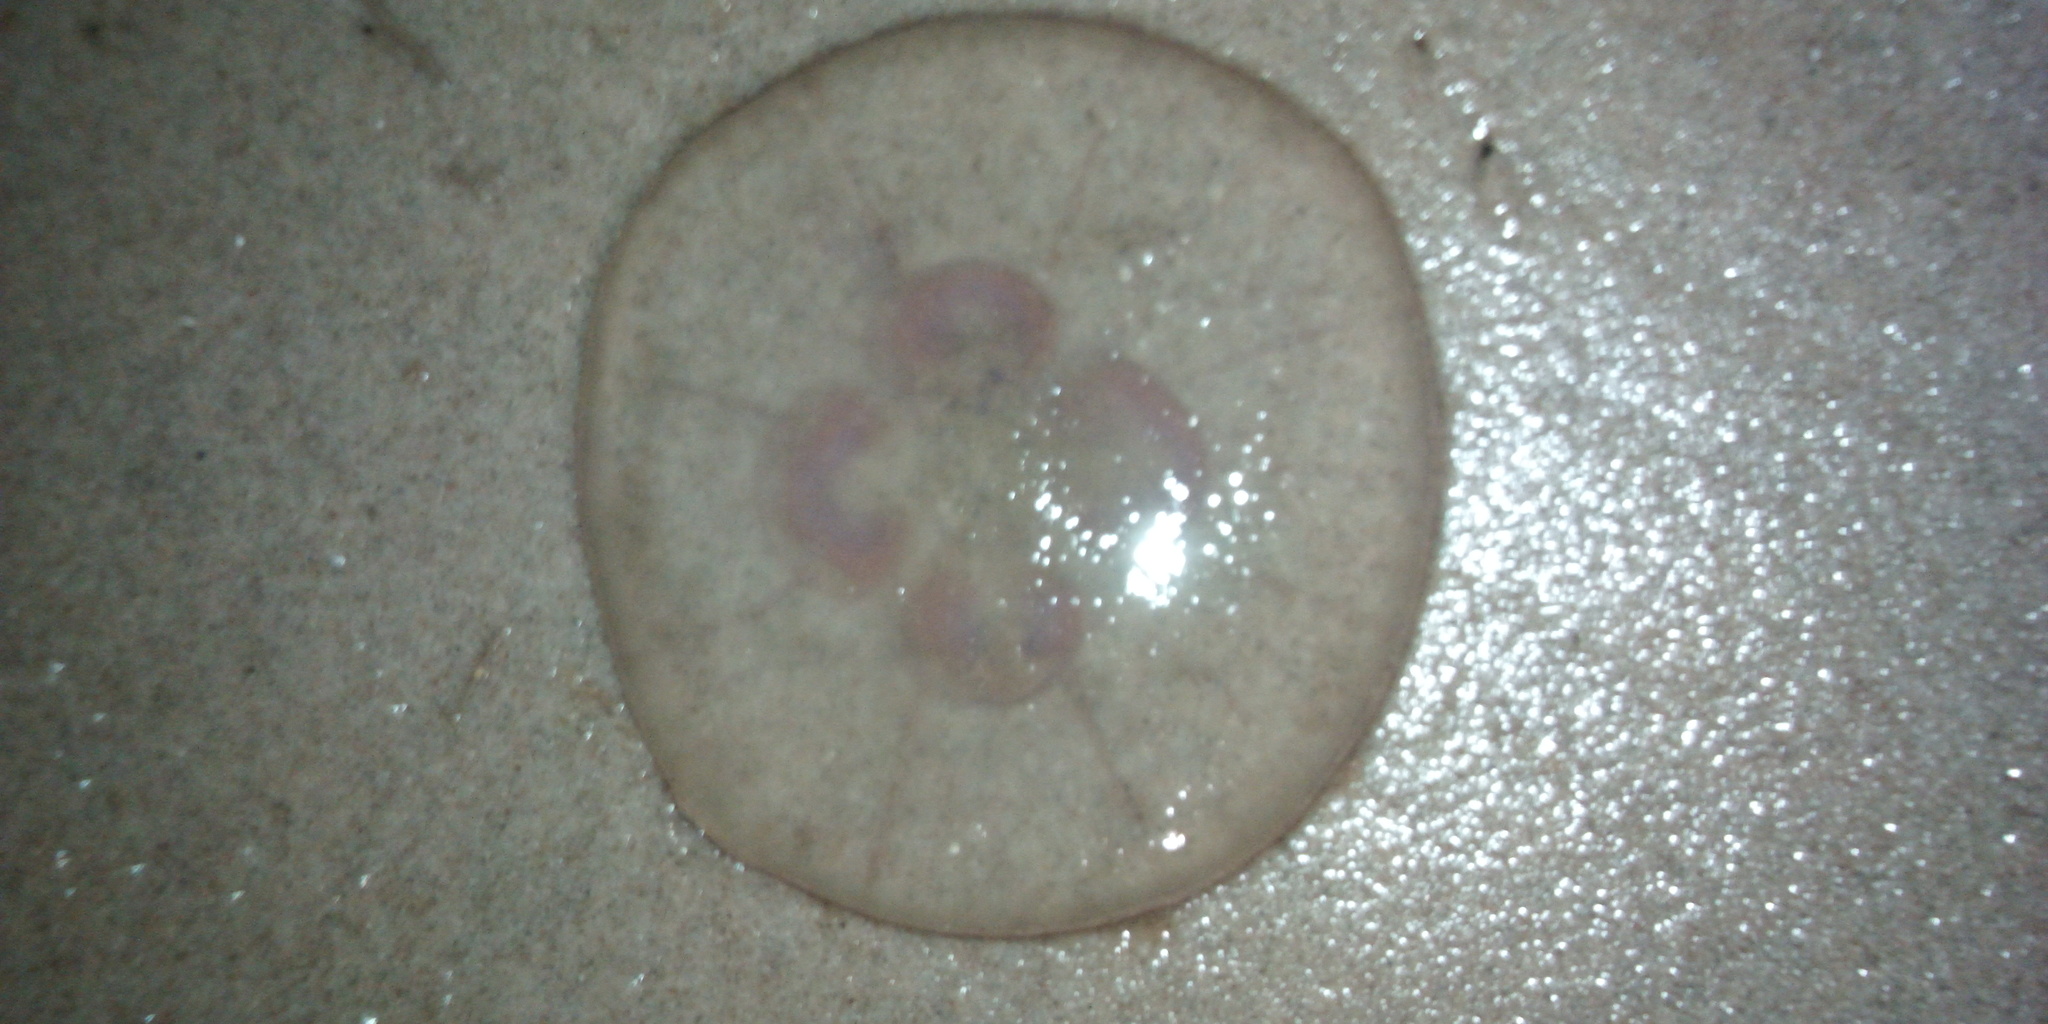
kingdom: Animalia
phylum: Cnidaria
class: Scyphozoa
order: Semaeostomeae
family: Ulmaridae
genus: Aurelia
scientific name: Aurelia aurita
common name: Moon jellyfish
